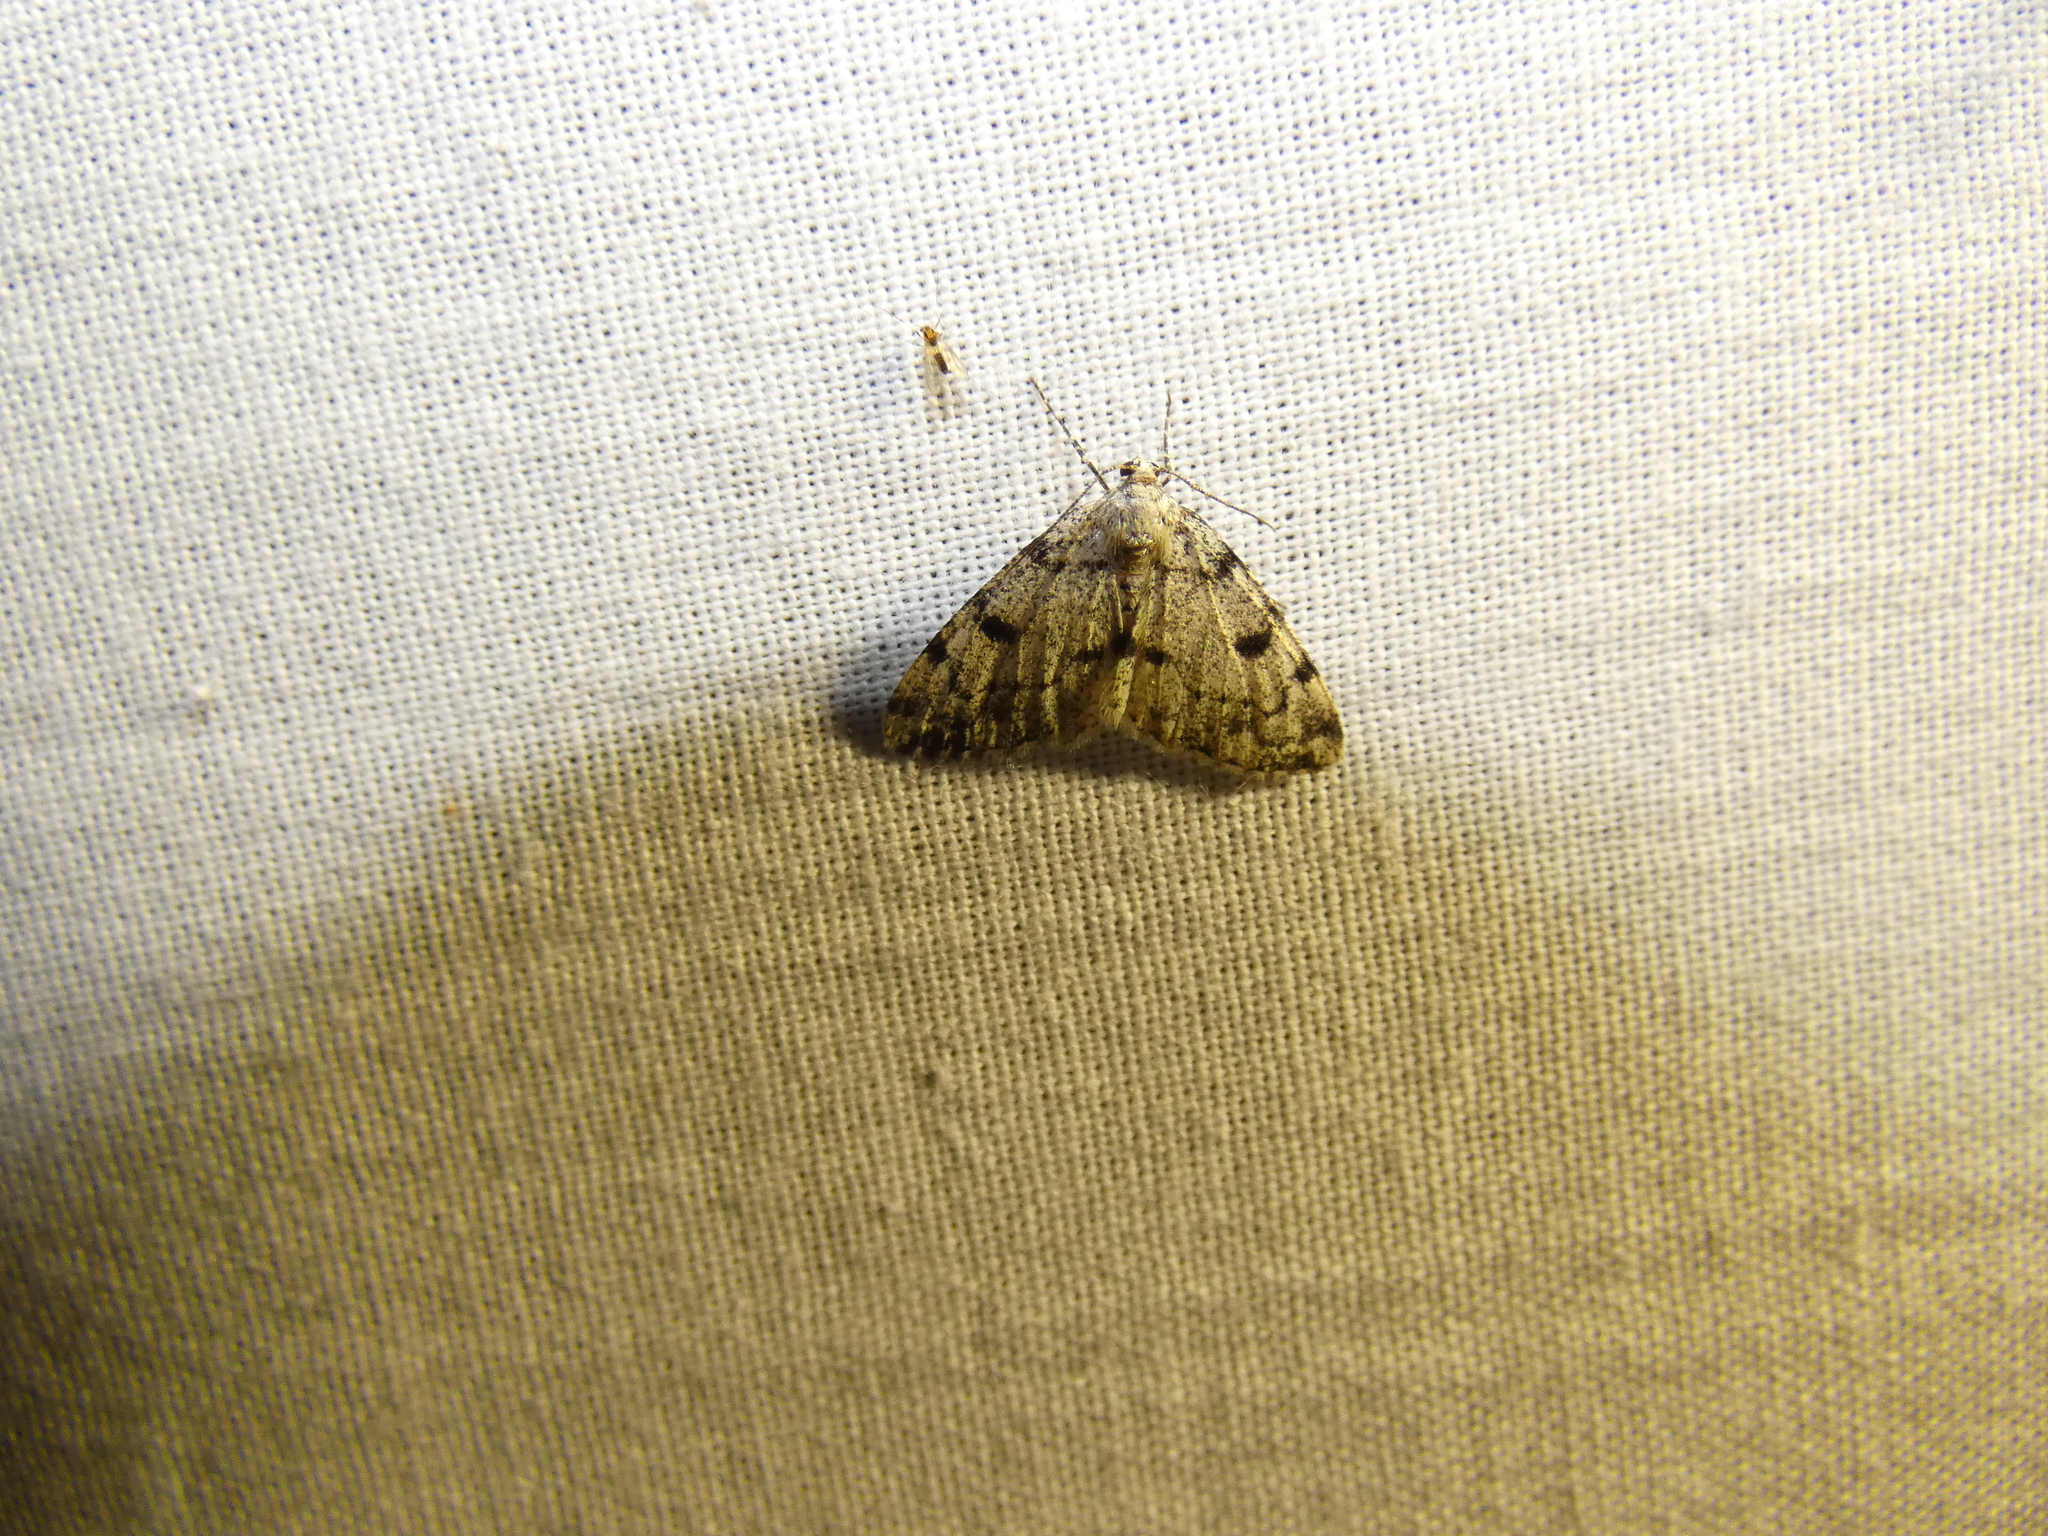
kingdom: Animalia
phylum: Arthropoda
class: Insecta
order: Lepidoptera
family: Geometridae
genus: Alcis
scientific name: Alcis jubata
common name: Dotted carpet
